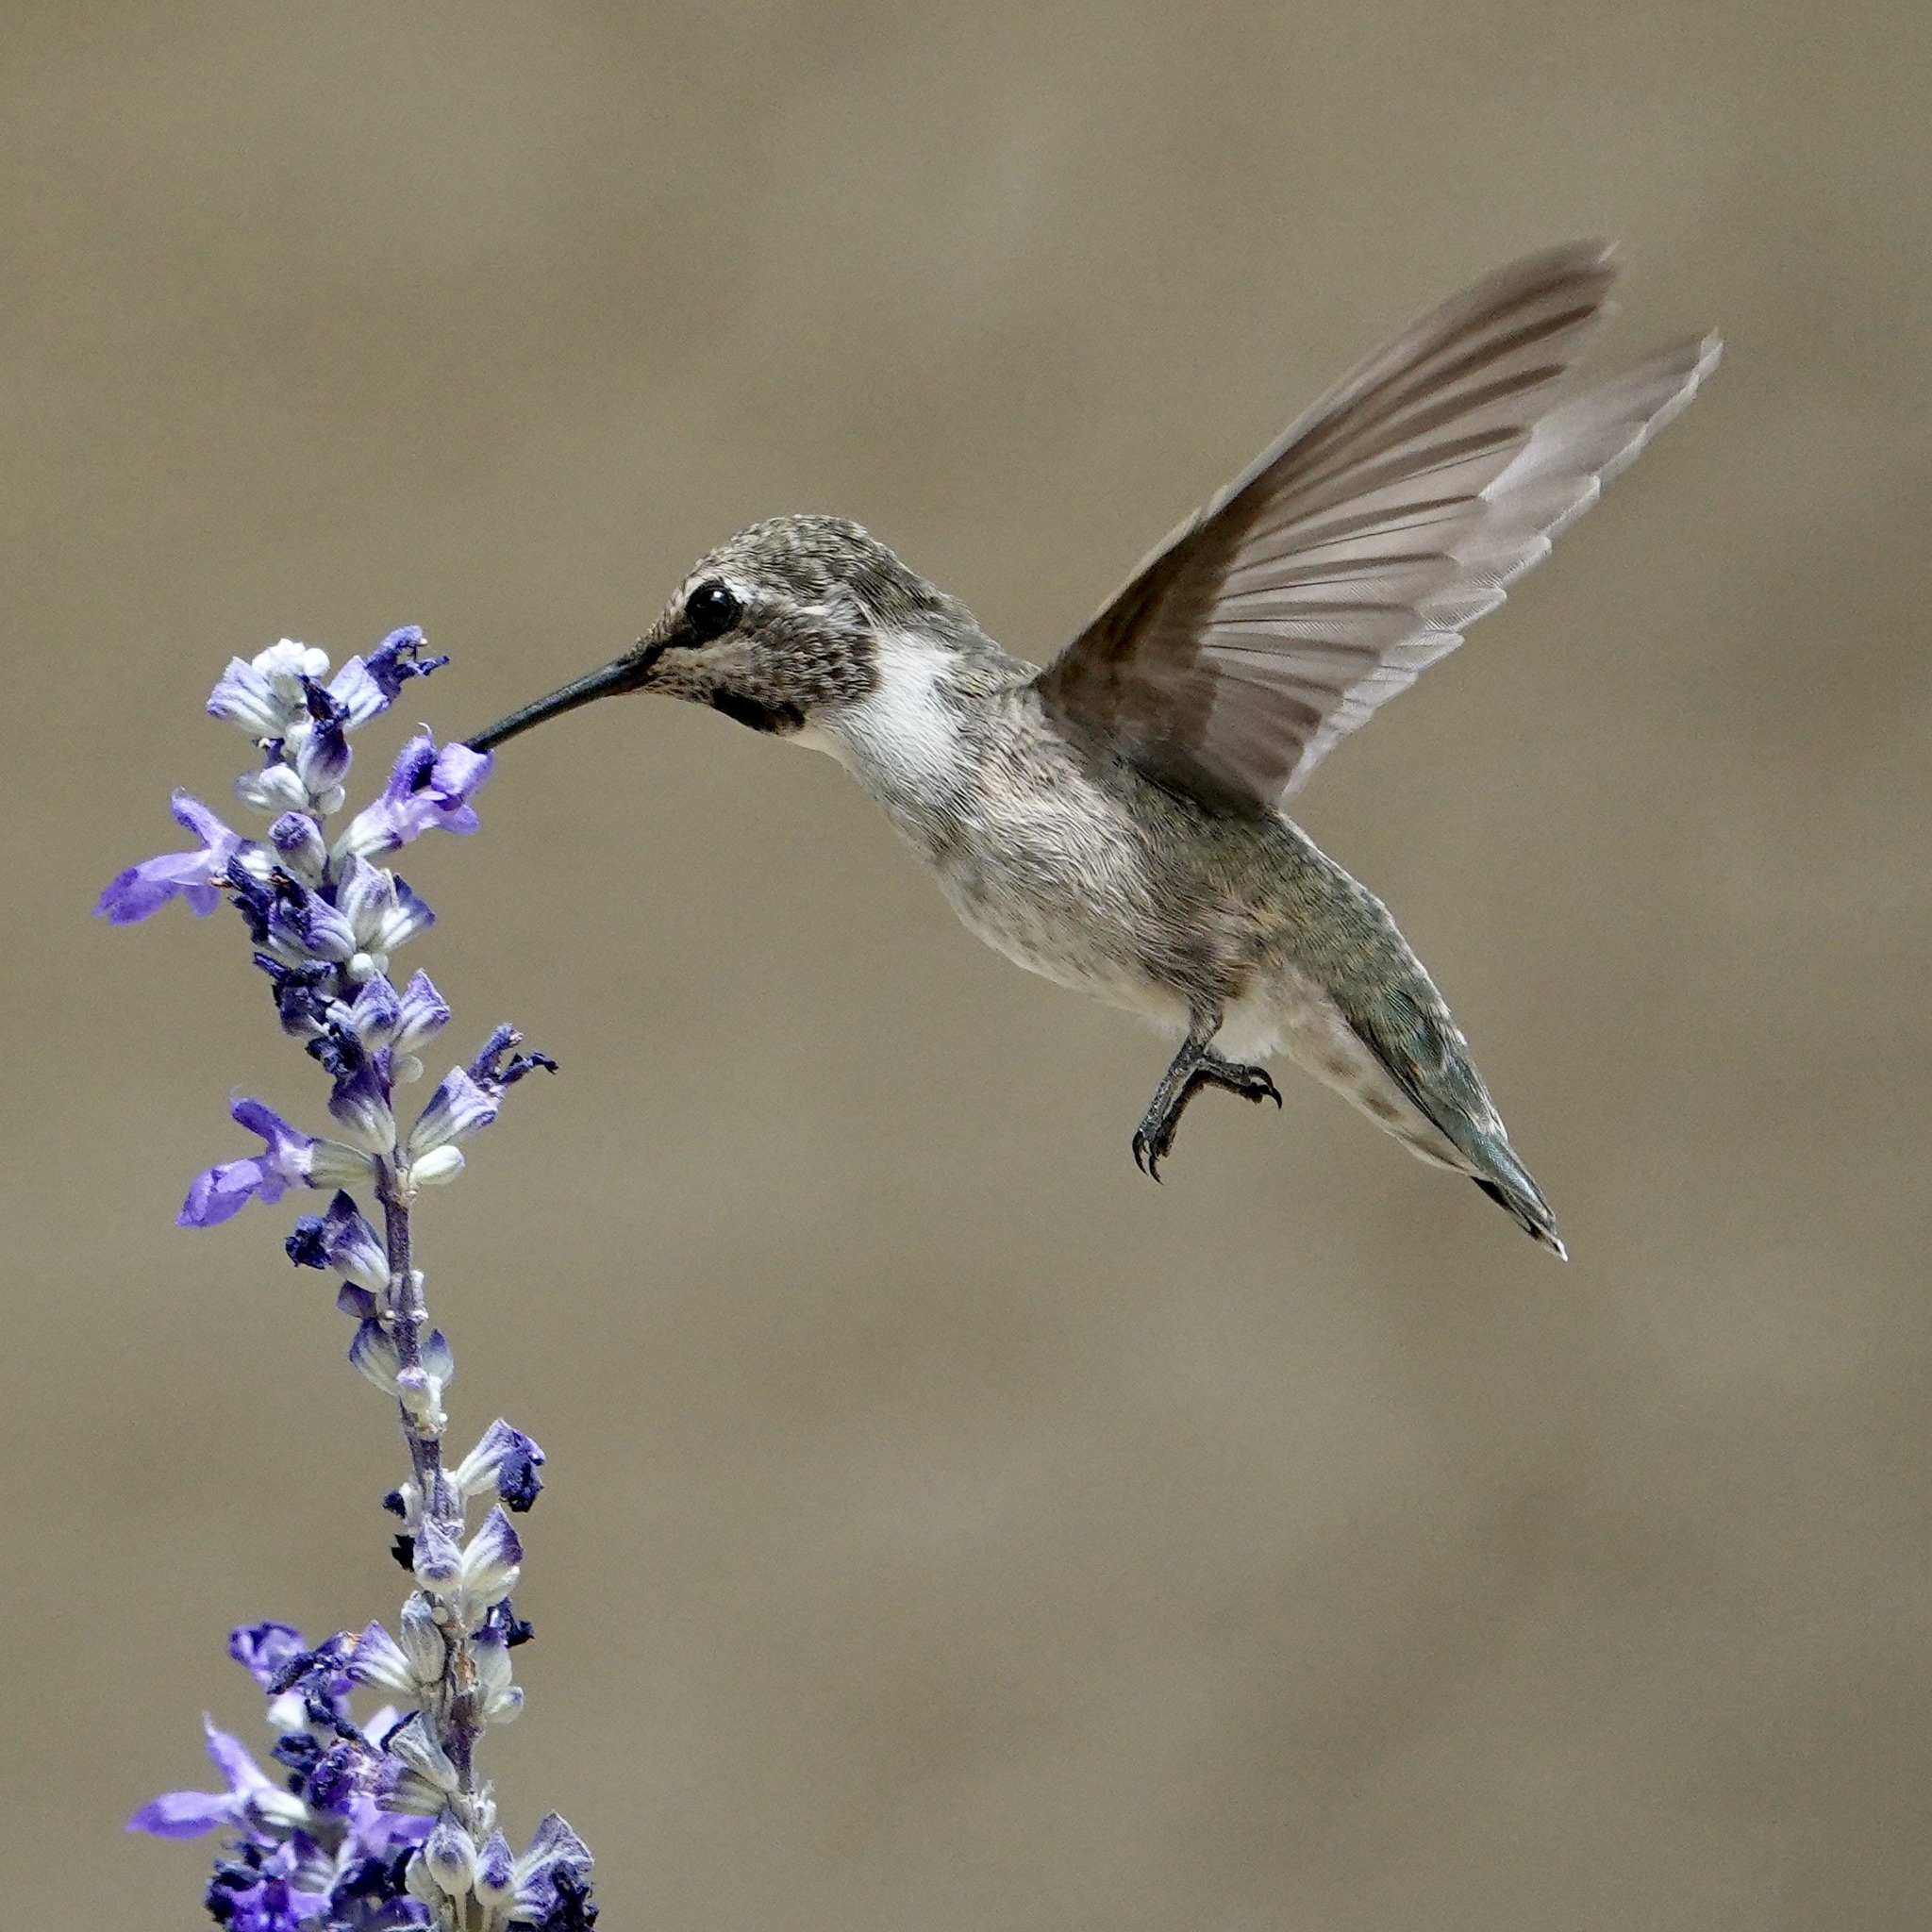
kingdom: Animalia
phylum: Chordata
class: Aves
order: Apodiformes
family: Trochilidae
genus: Calypte
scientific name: Calypte costae
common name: Costa's hummingbird
